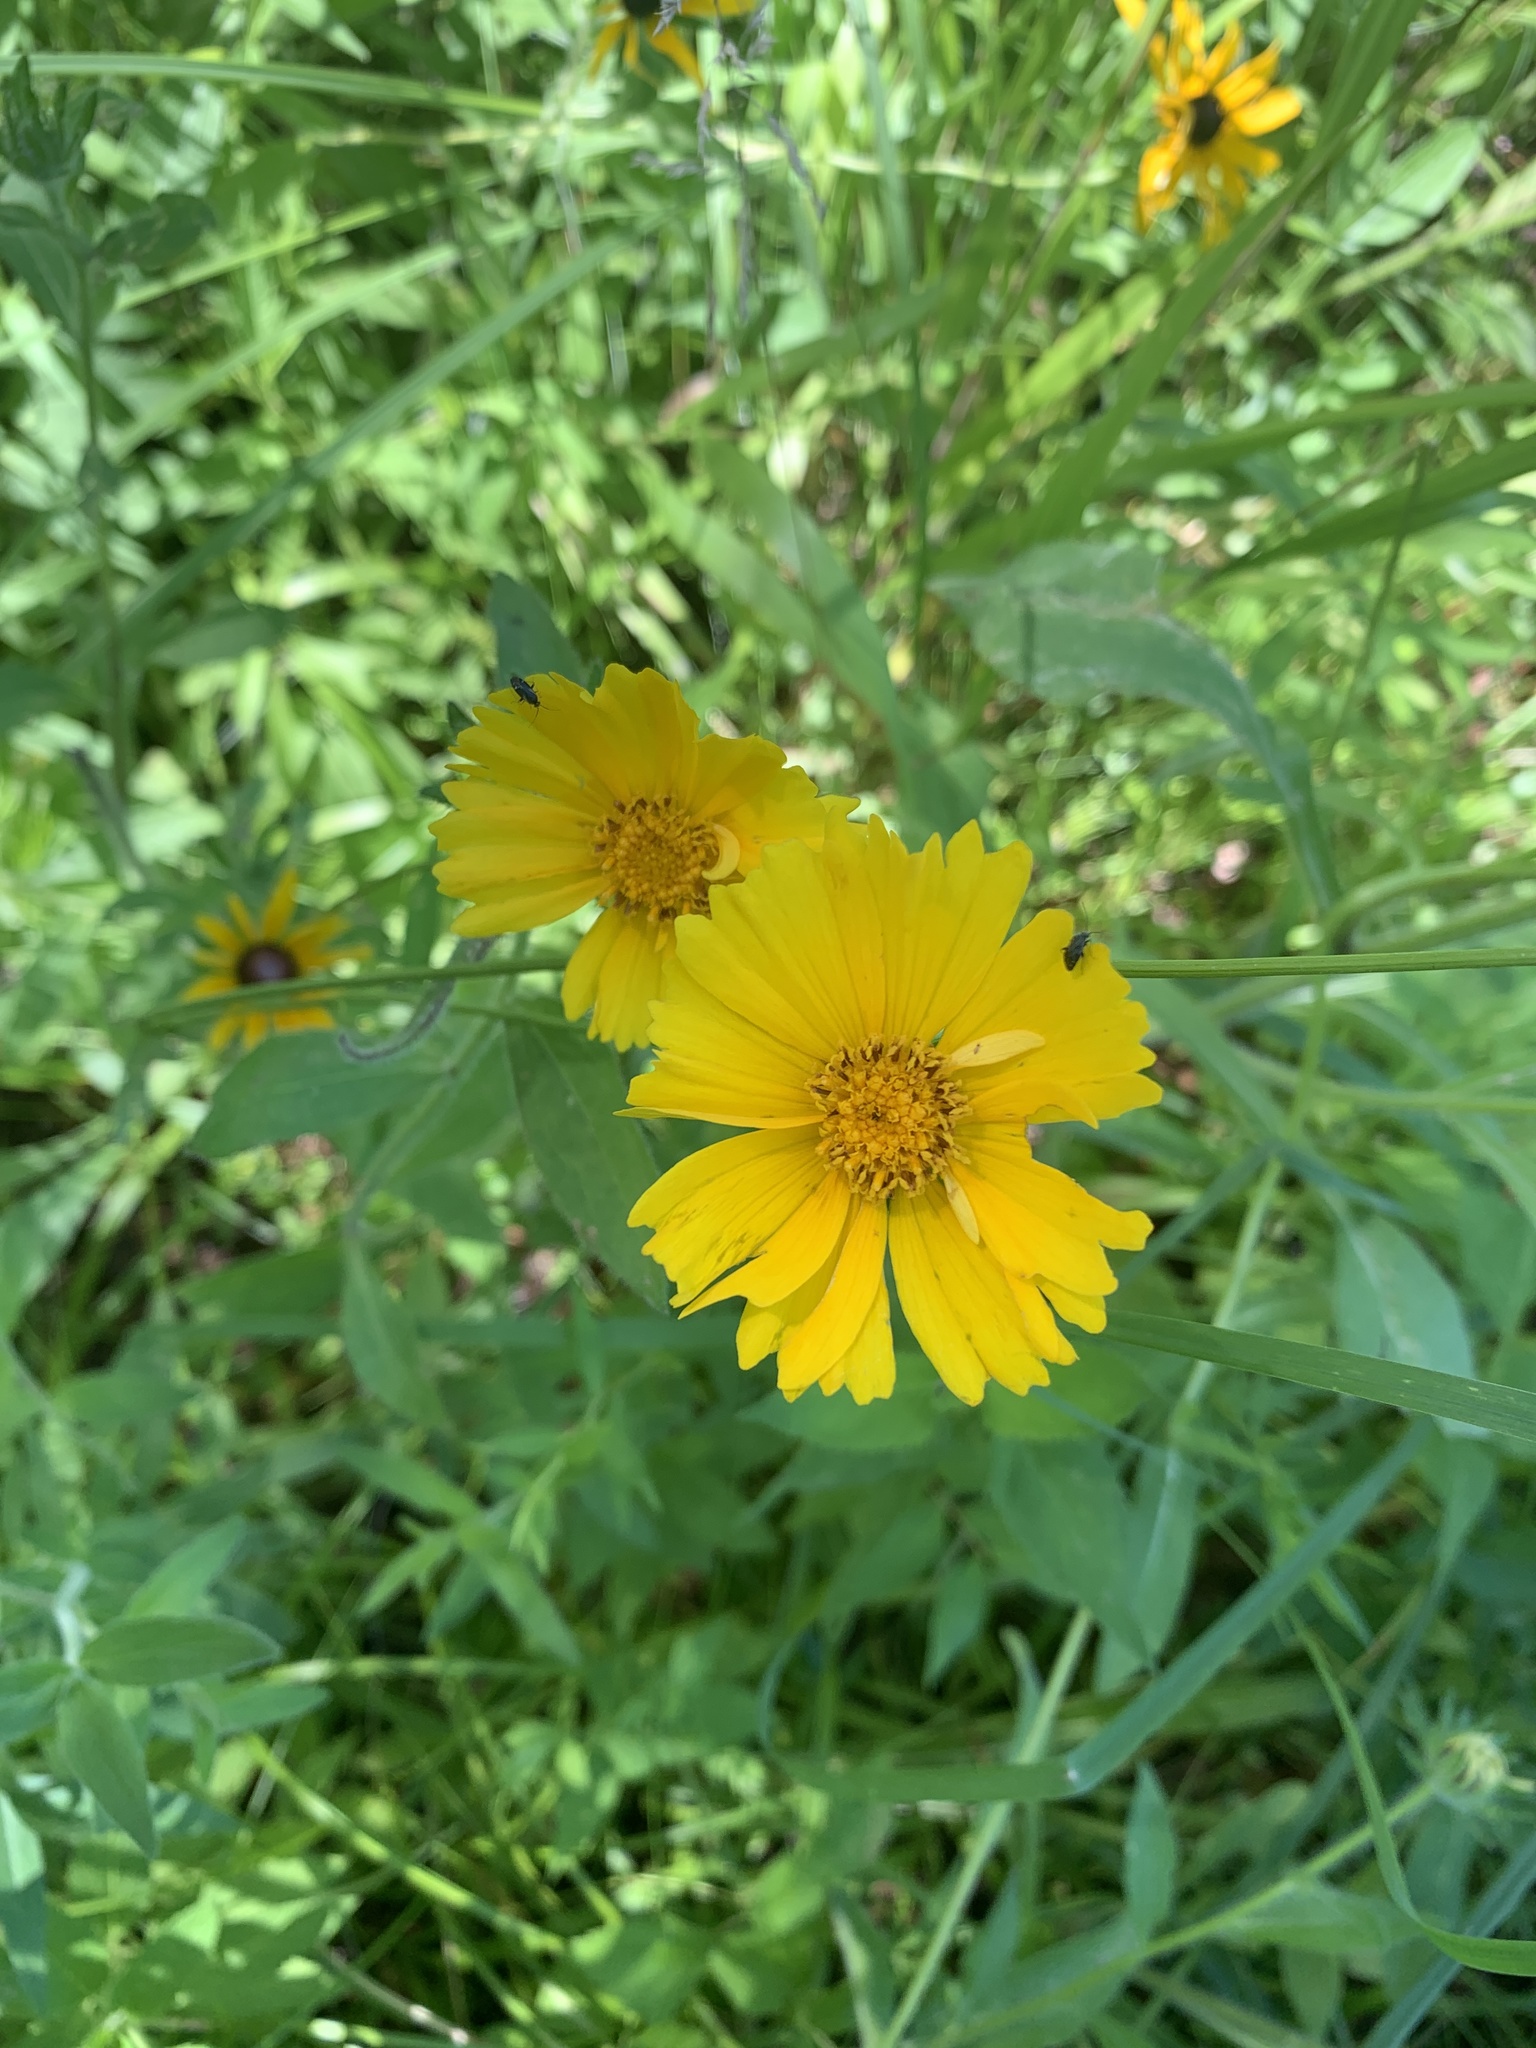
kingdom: Plantae
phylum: Tracheophyta
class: Magnoliopsida
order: Asterales
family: Asteraceae
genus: Coreopsis
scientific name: Coreopsis lanceolata
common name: Garden coreopsis
